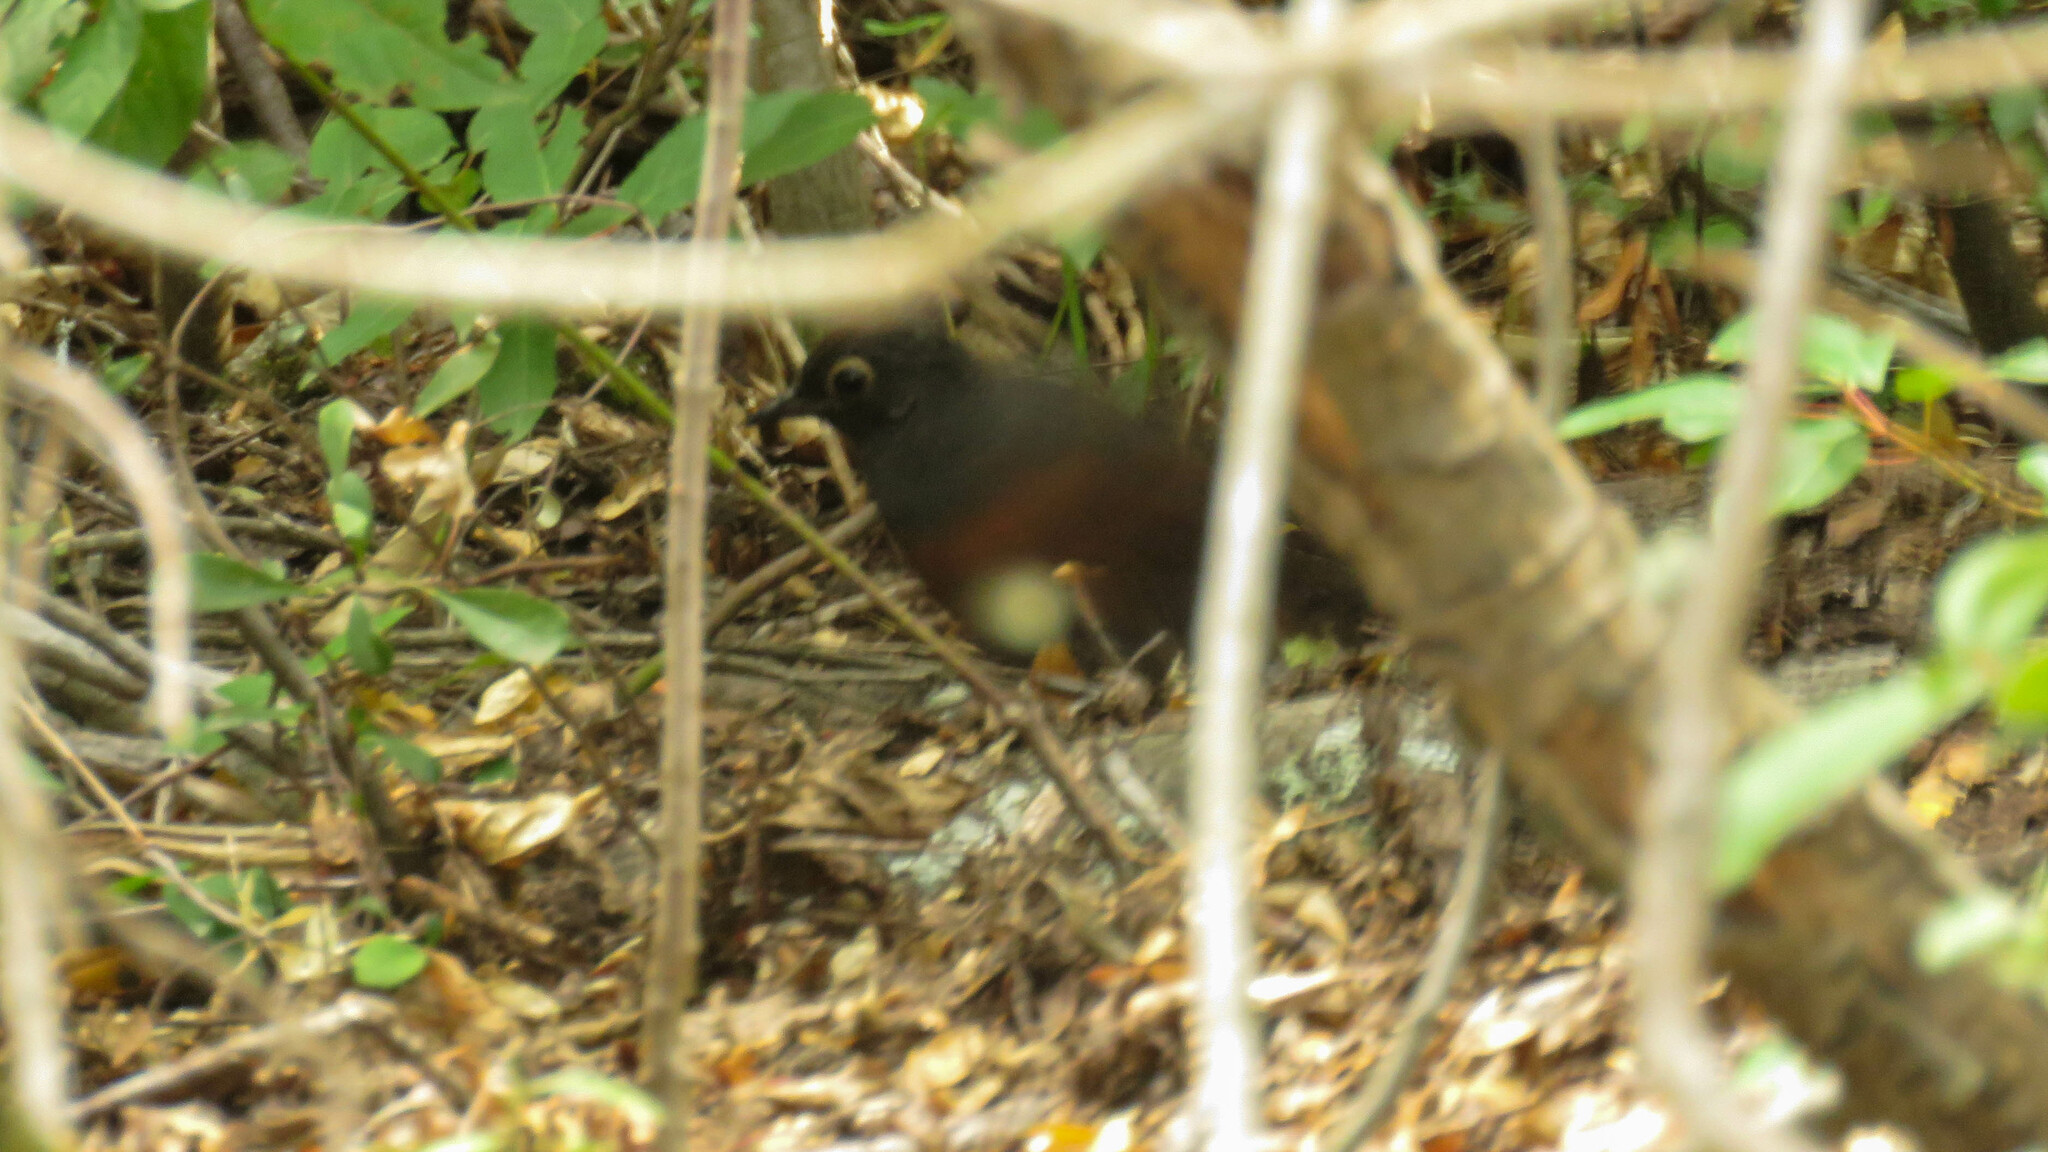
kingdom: Animalia
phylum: Chordata
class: Aves
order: Passeriformes
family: Rhinocryptidae
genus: Pteroptochos
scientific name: Pteroptochos tarnii
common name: Black-throated huet-huet
